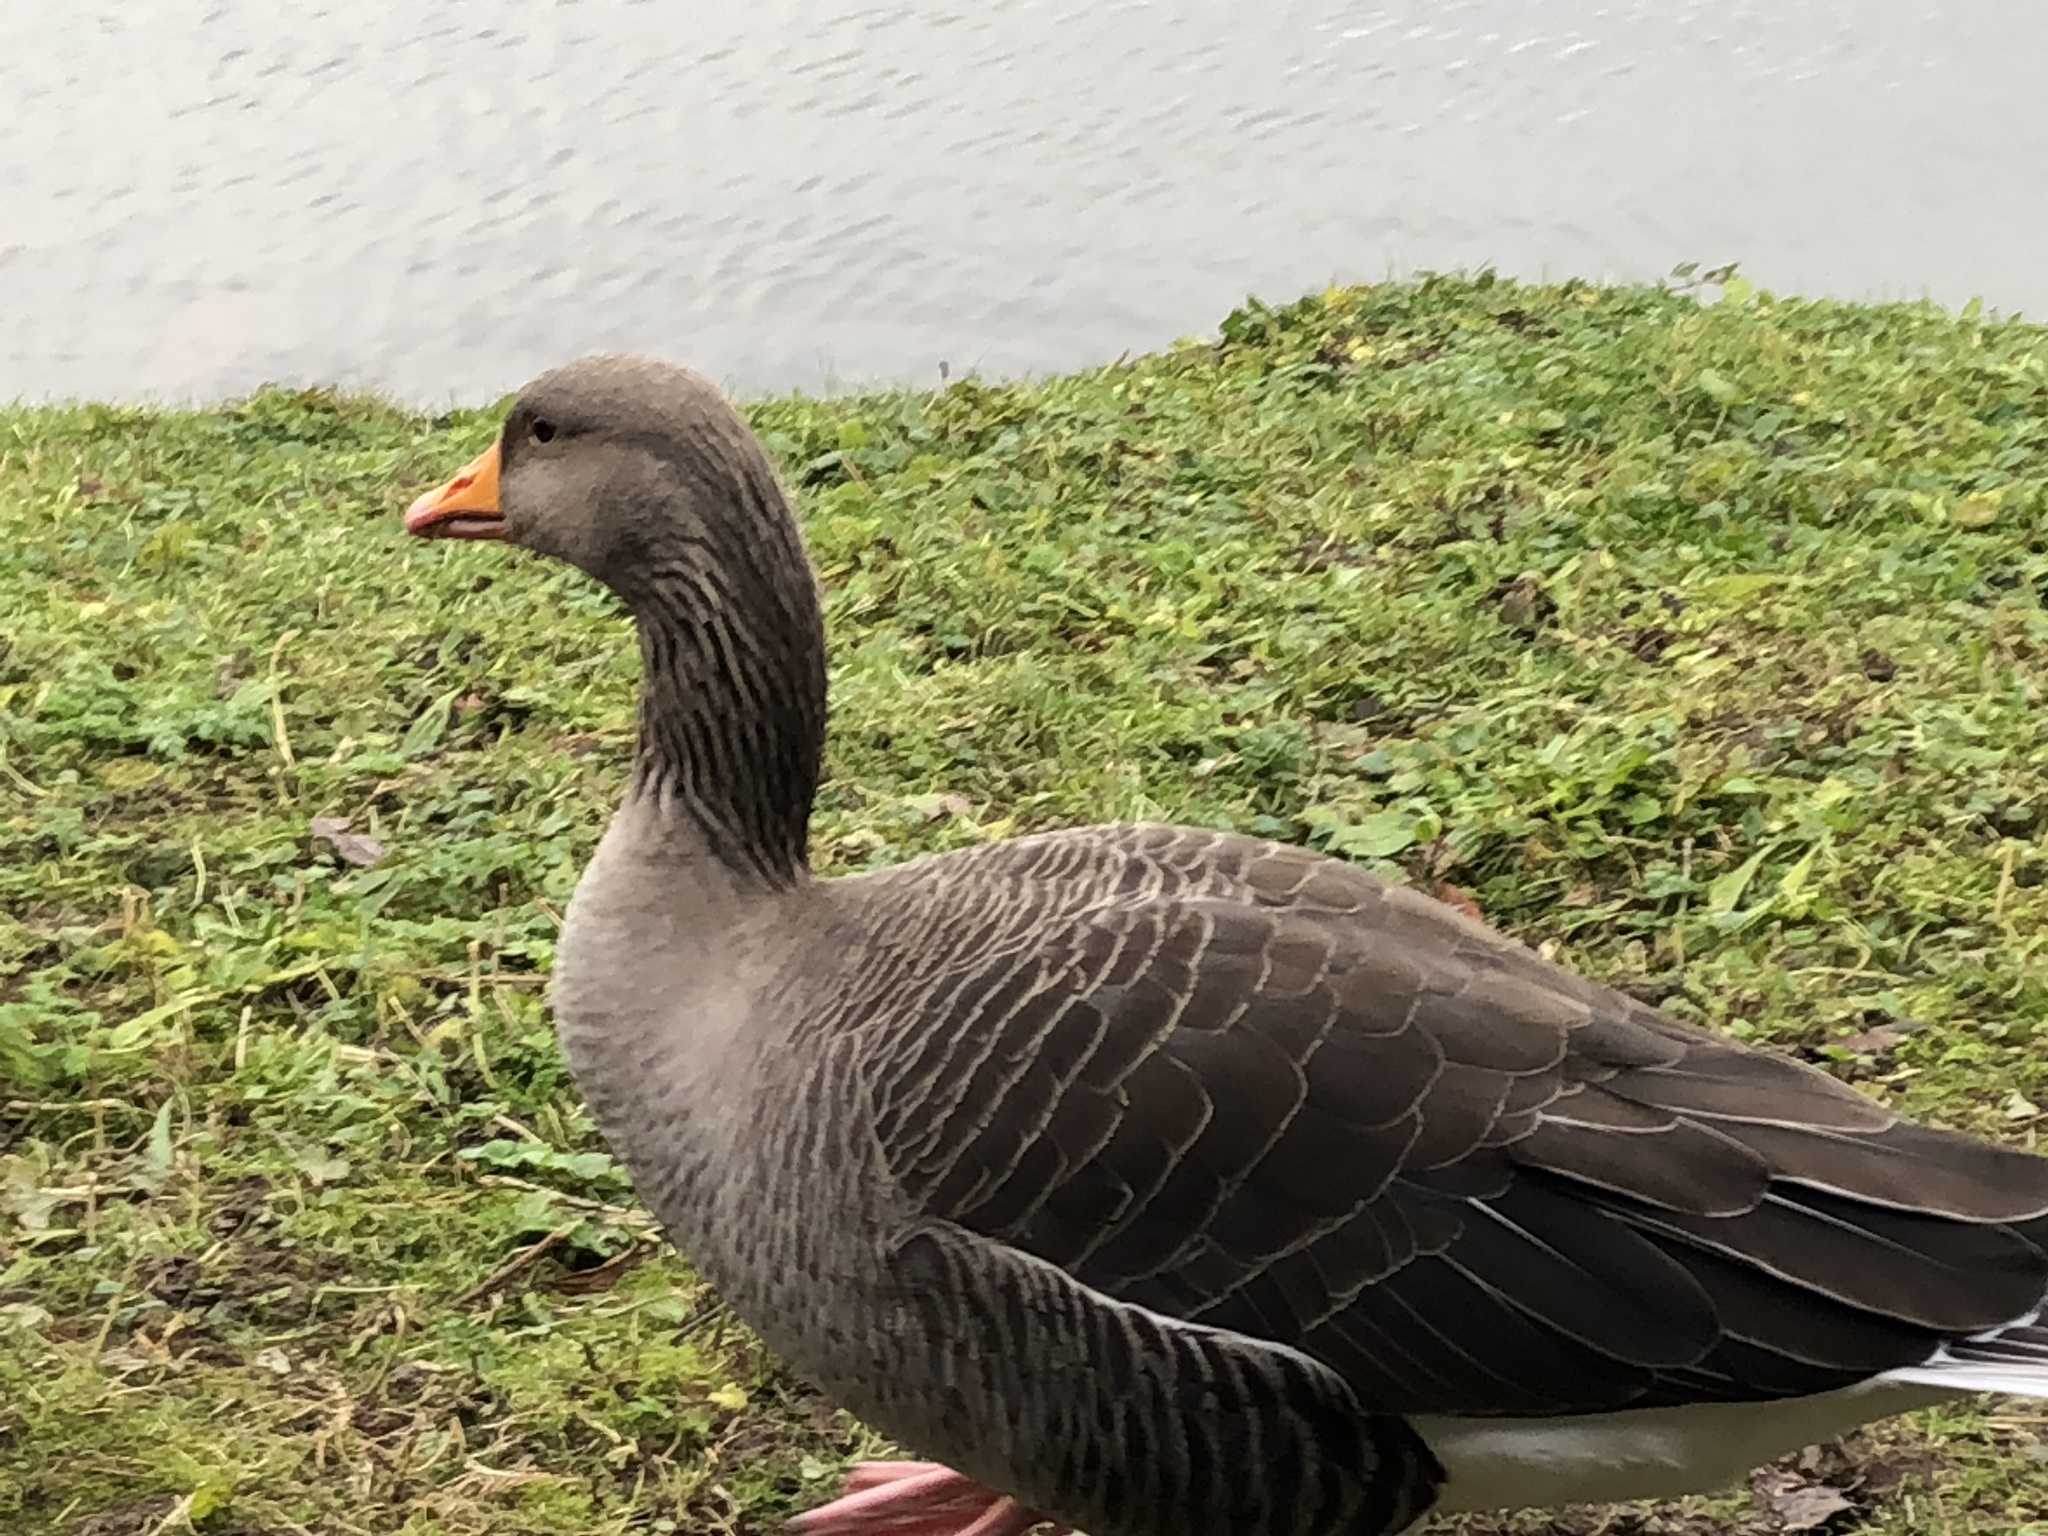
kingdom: Animalia
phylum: Chordata
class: Aves
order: Anseriformes
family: Anatidae
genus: Anser
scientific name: Anser anser
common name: Greylag goose
